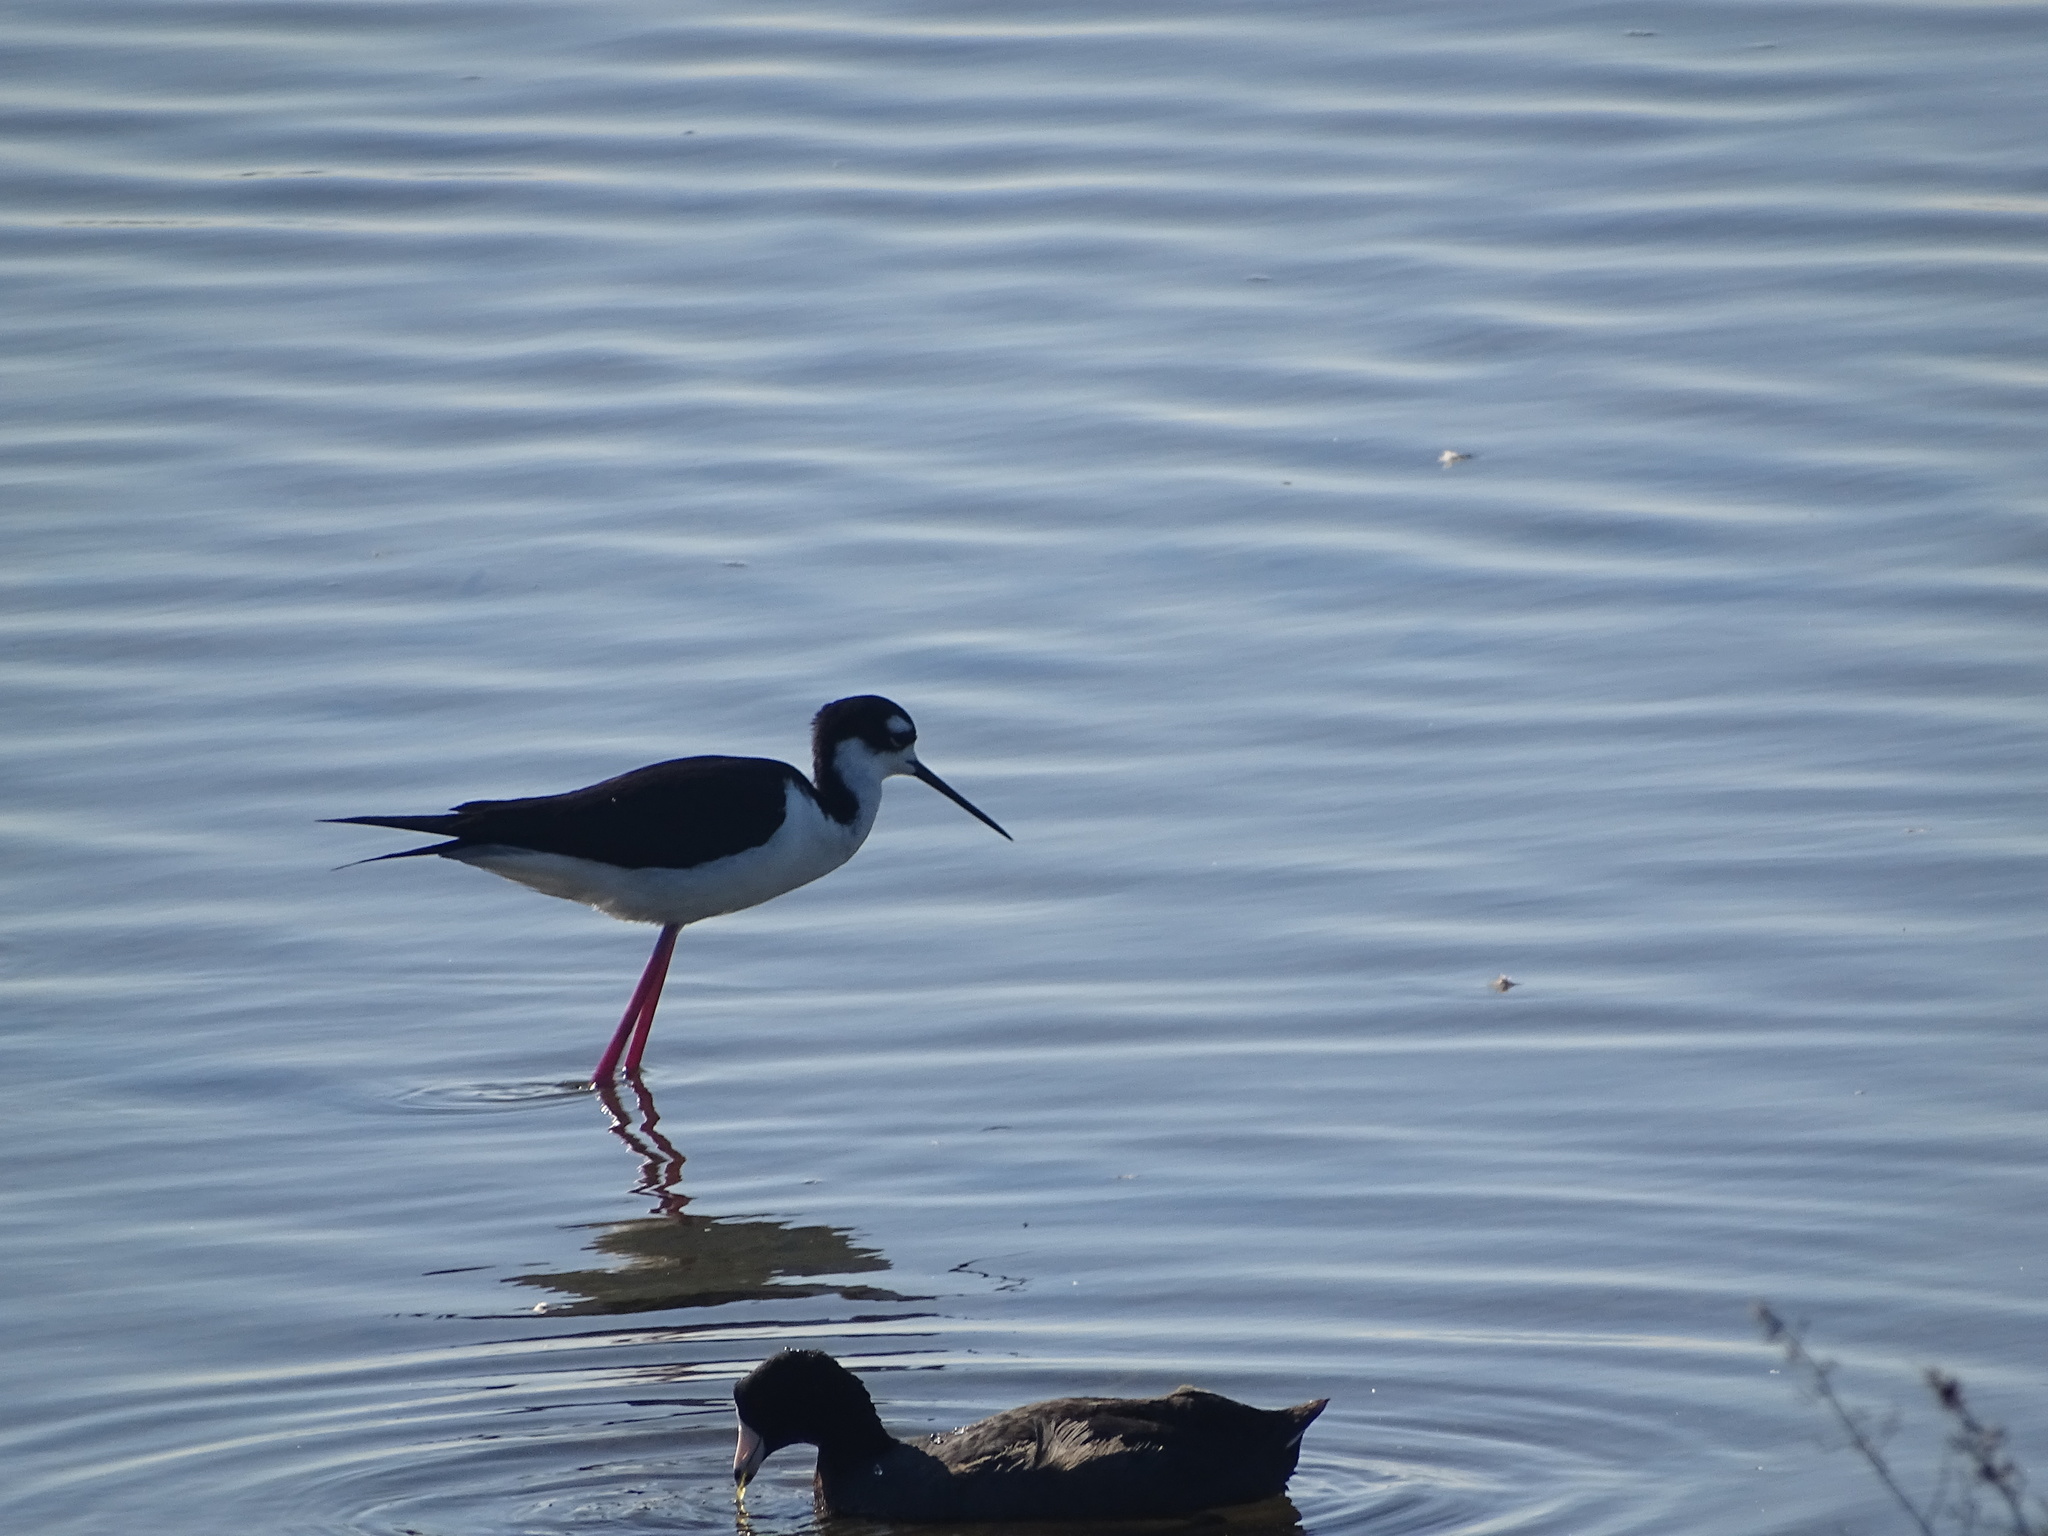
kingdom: Animalia
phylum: Chordata
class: Aves
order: Charadriiformes
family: Recurvirostridae
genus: Himantopus
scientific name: Himantopus mexicanus
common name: Black-necked stilt
